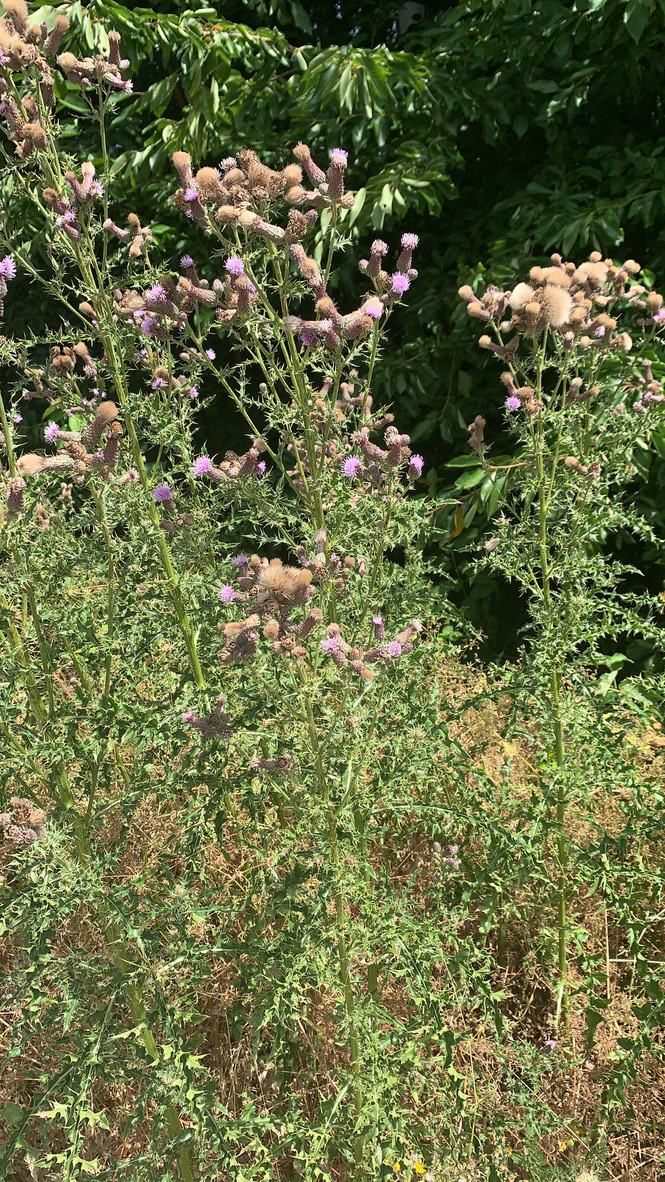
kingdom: Plantae
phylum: Tracheophyta
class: Magnoliopsida
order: Asterales
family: Asteraceae
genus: Cirsium
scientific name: Cirsium arvense
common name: Creeping thistle
